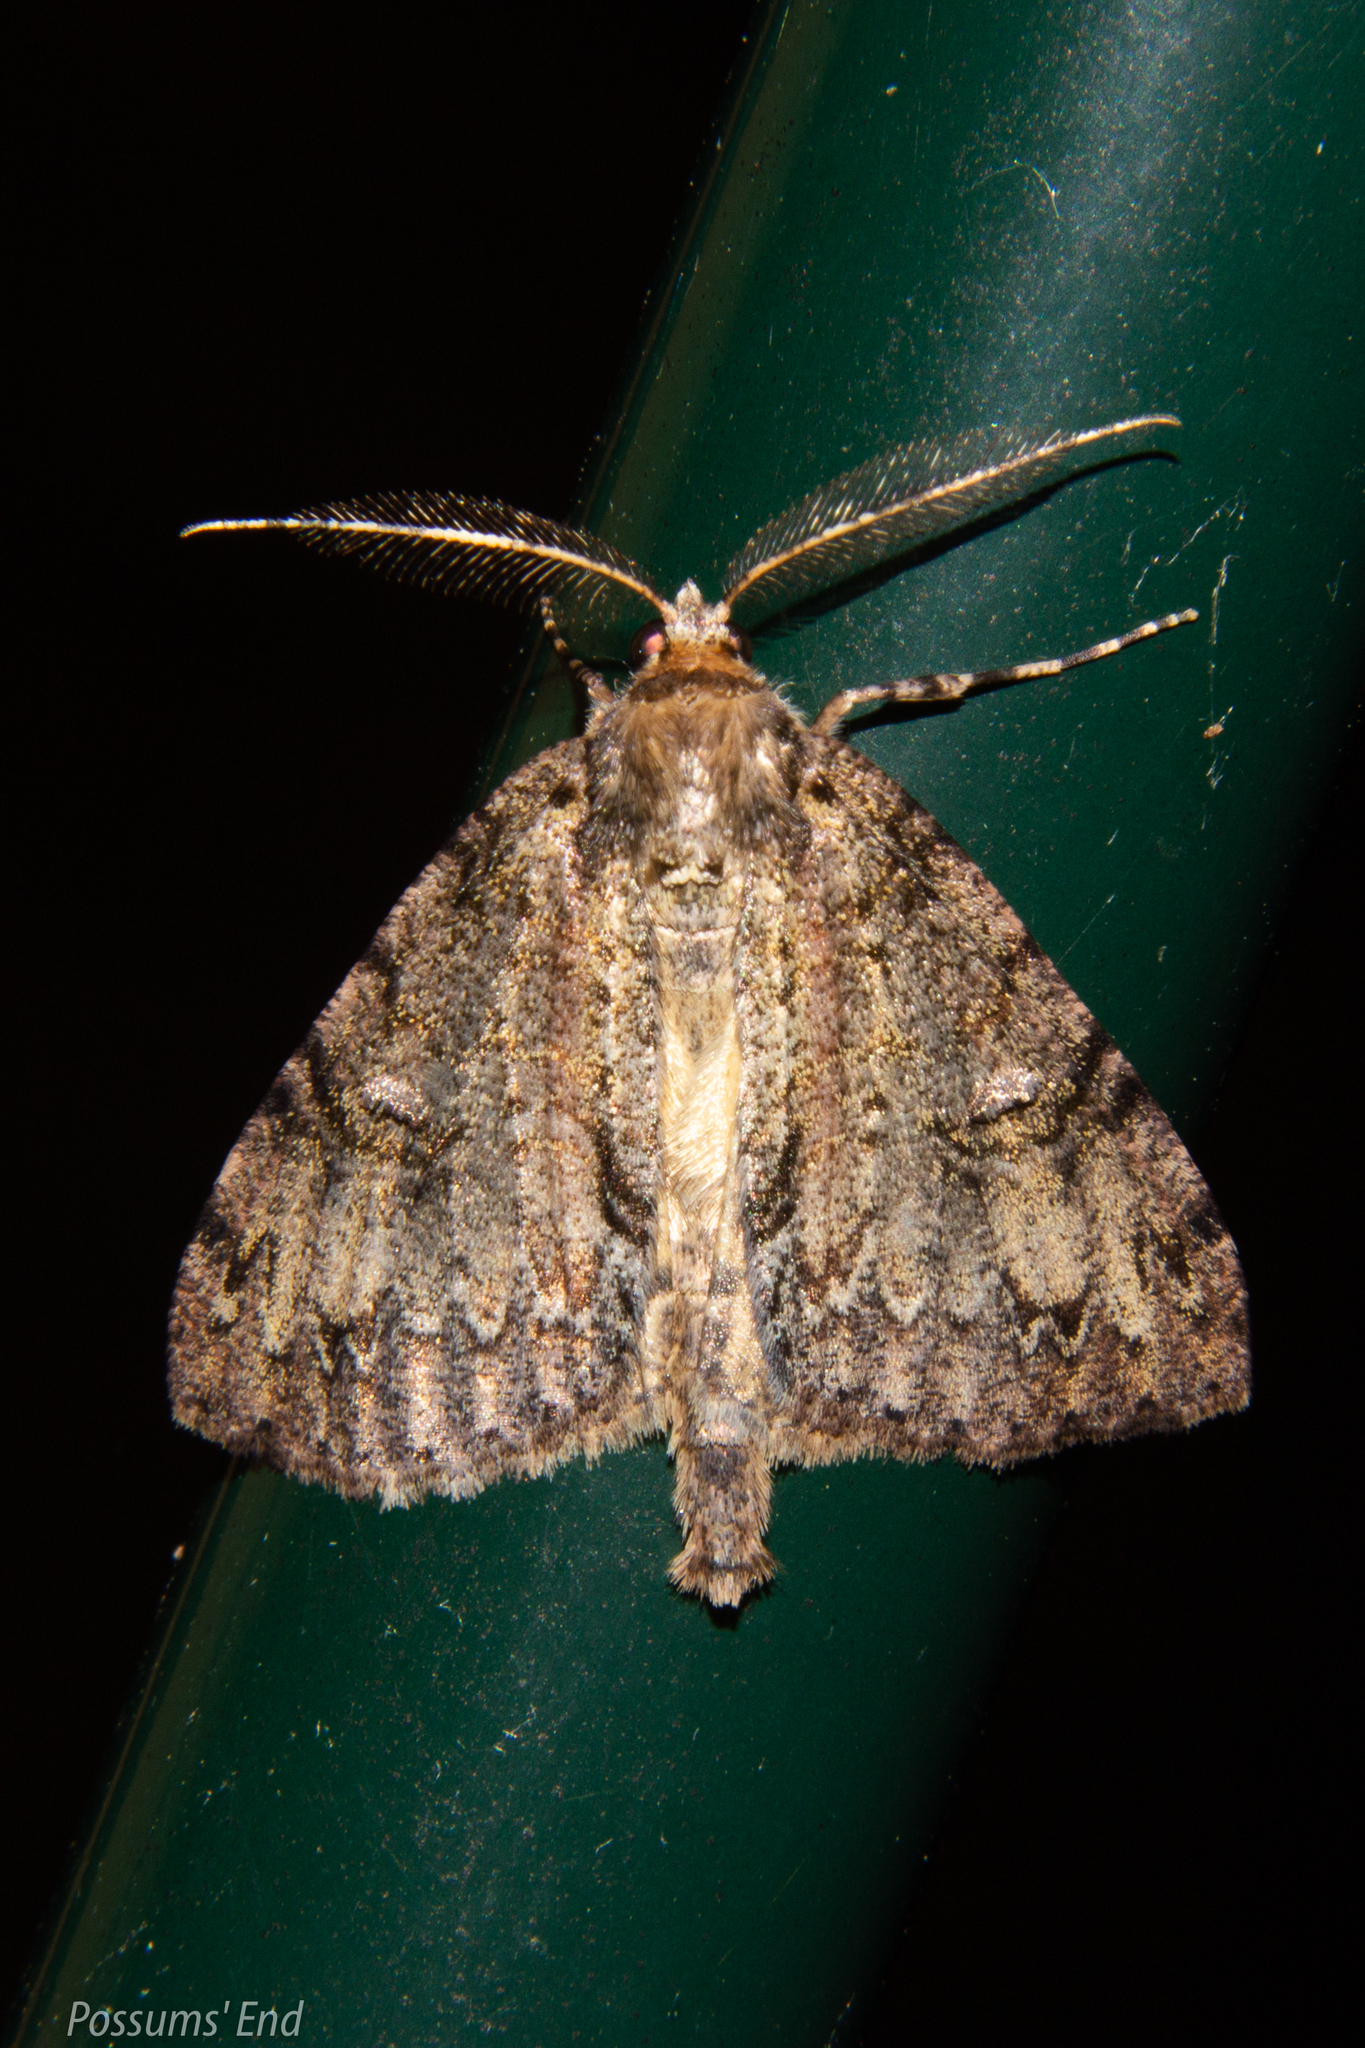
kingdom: Animalia
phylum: Arthropoda
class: Insecta
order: Lepidoptera
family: Geometridae
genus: Pseudocoremia
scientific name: Pseudocoremia suavis
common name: Common forest looper
